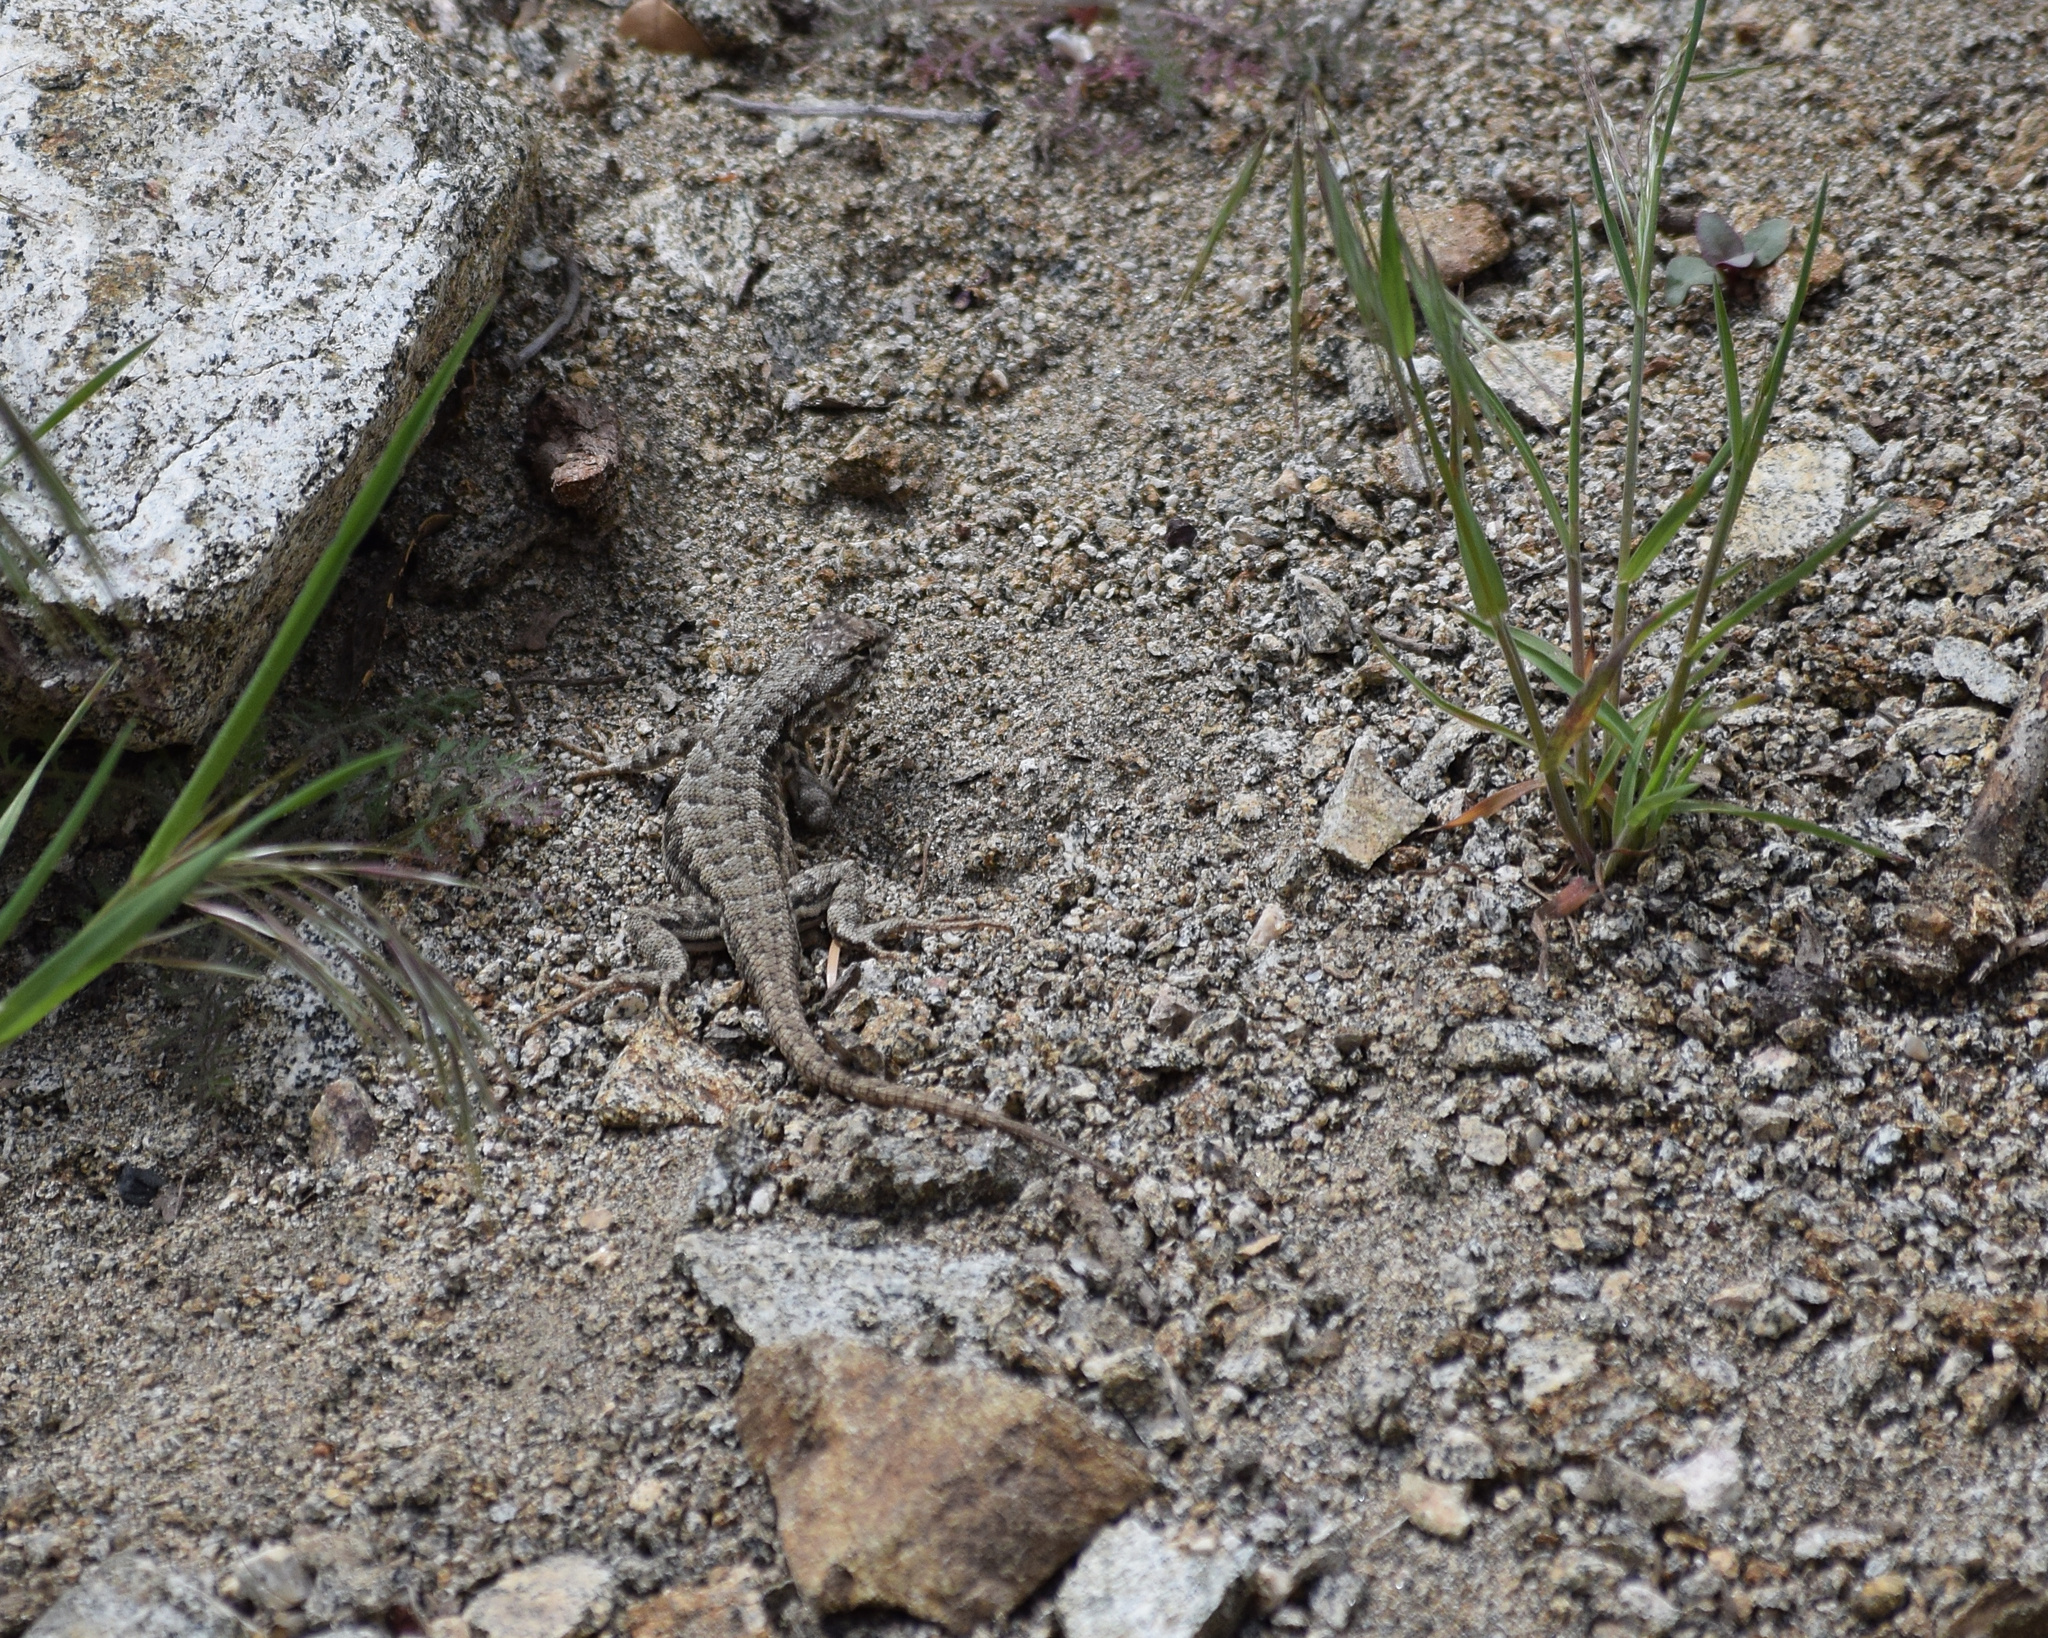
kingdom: Animalia
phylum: Chordata
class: Squamata
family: Phrynosomatidae
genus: Sceloporus
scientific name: Sceloporus graciosus
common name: Sagebrush lizard
